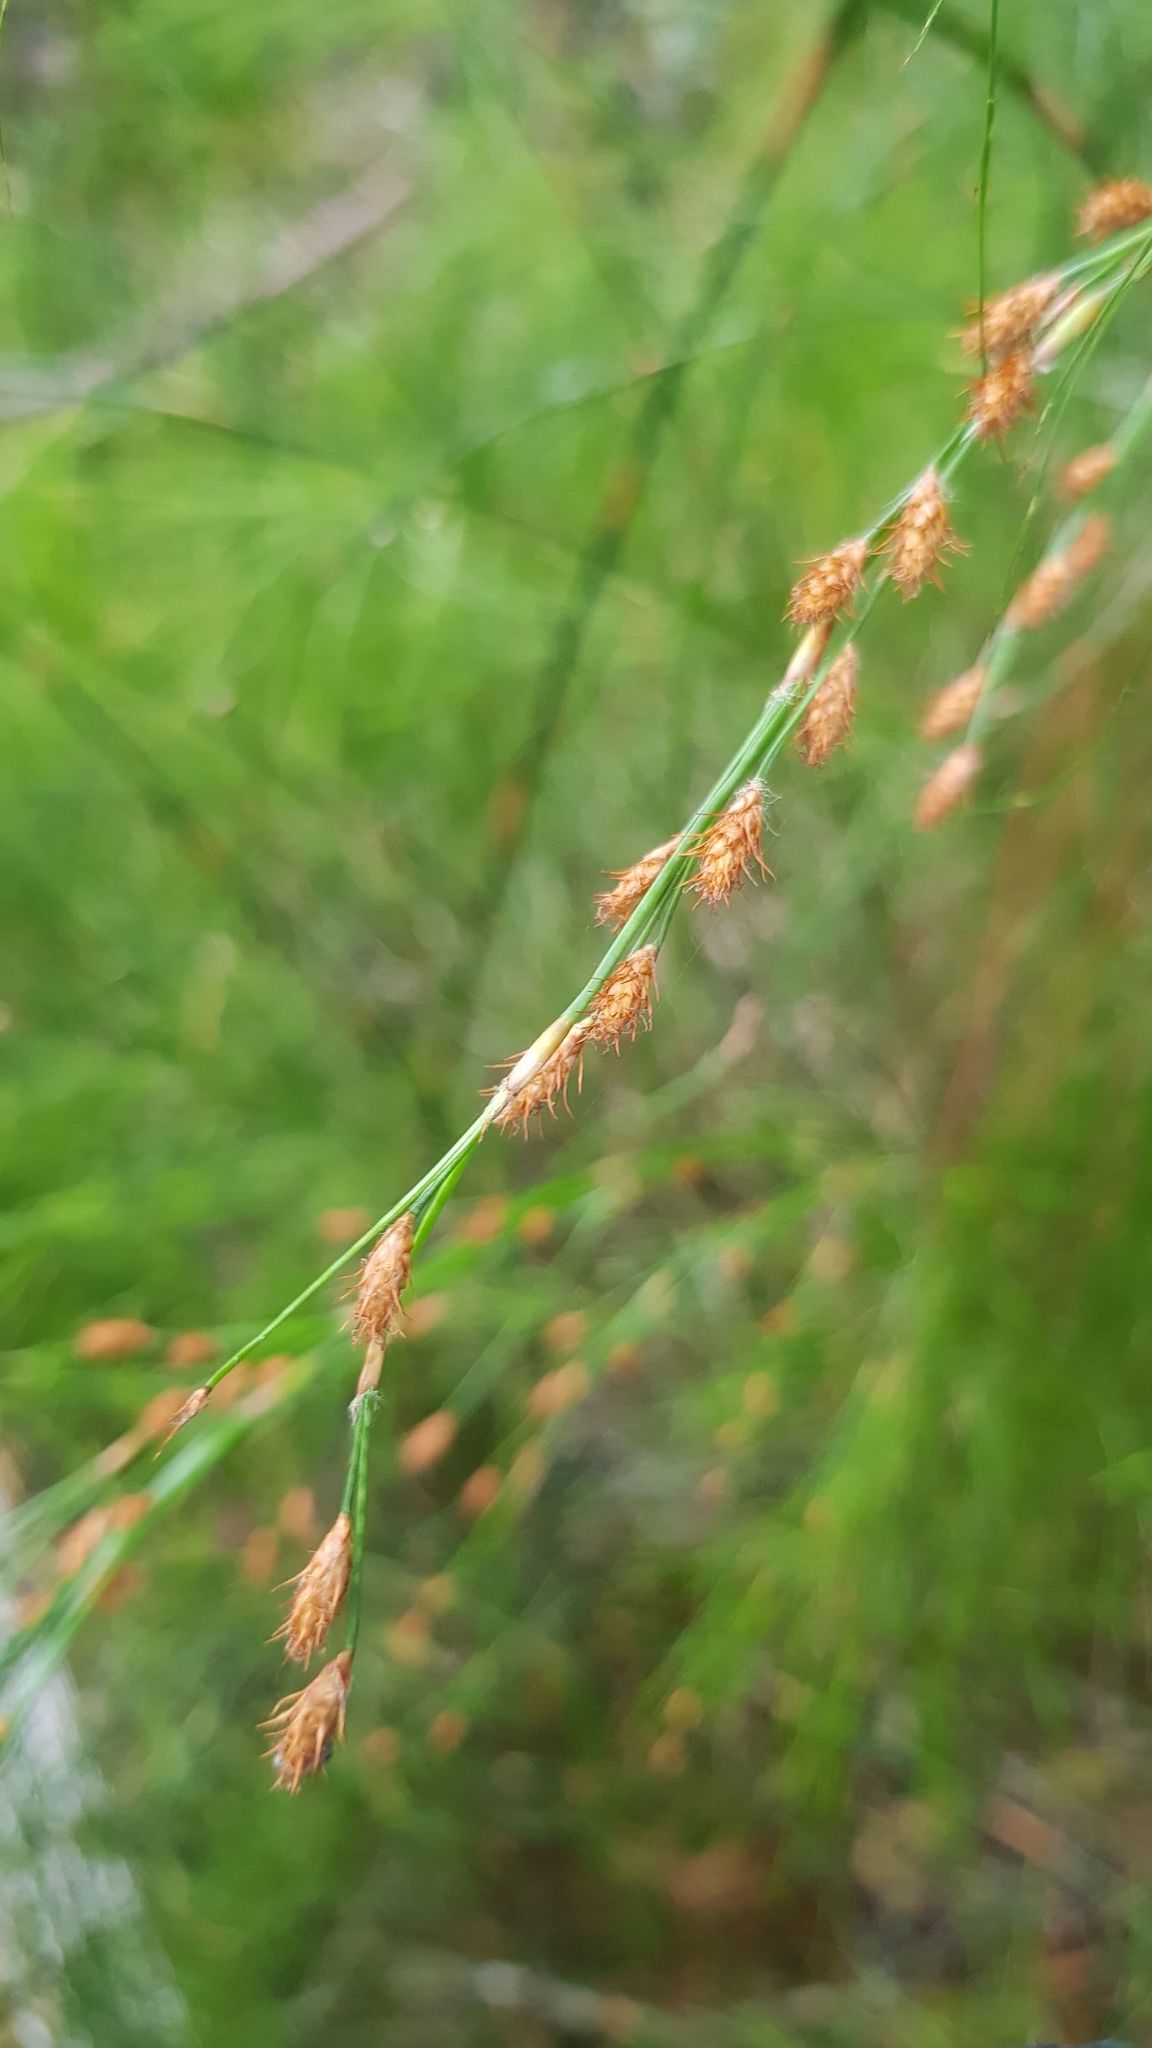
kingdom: Plantae
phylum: Tracheophyta
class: Liliopsida
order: Poales
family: Restionaceae
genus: Baloskion
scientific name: Baloskion tetraphyllum
